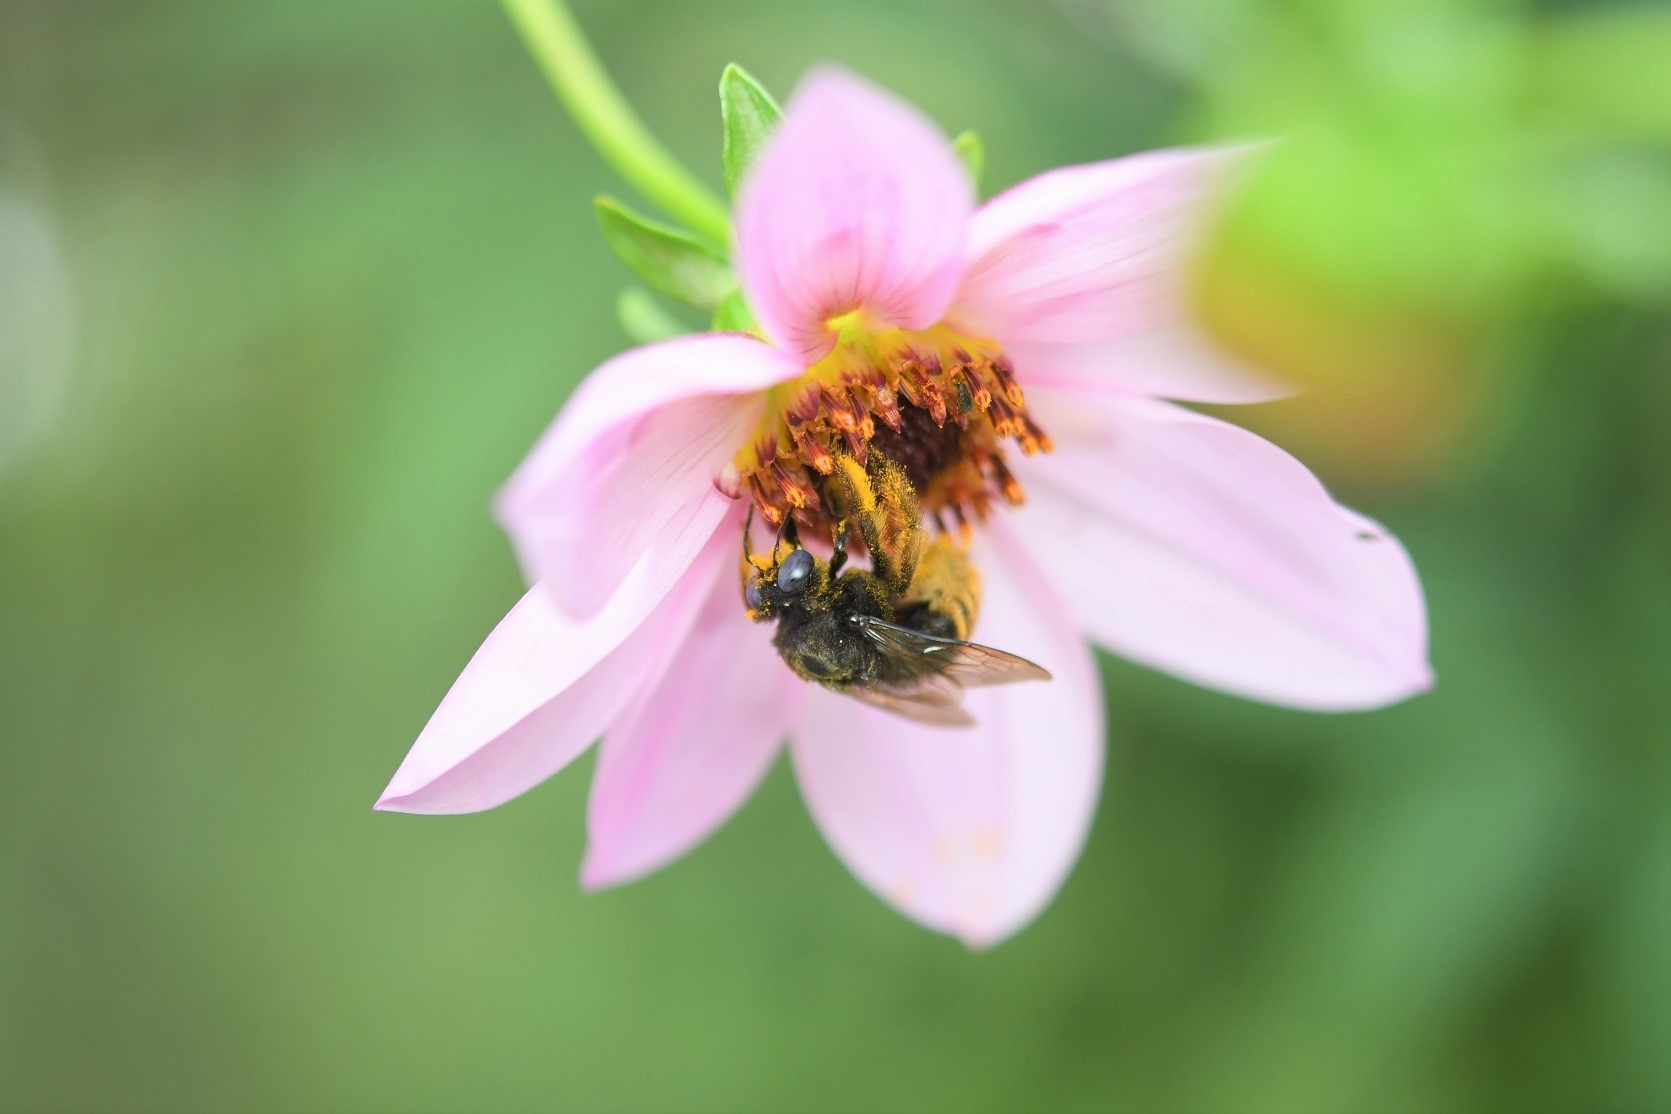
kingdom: Animalia
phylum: Arthropoda
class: Insecta
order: Hymenoptera
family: Apidae
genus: Xylocopa
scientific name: Xylocopa tabaniformis
